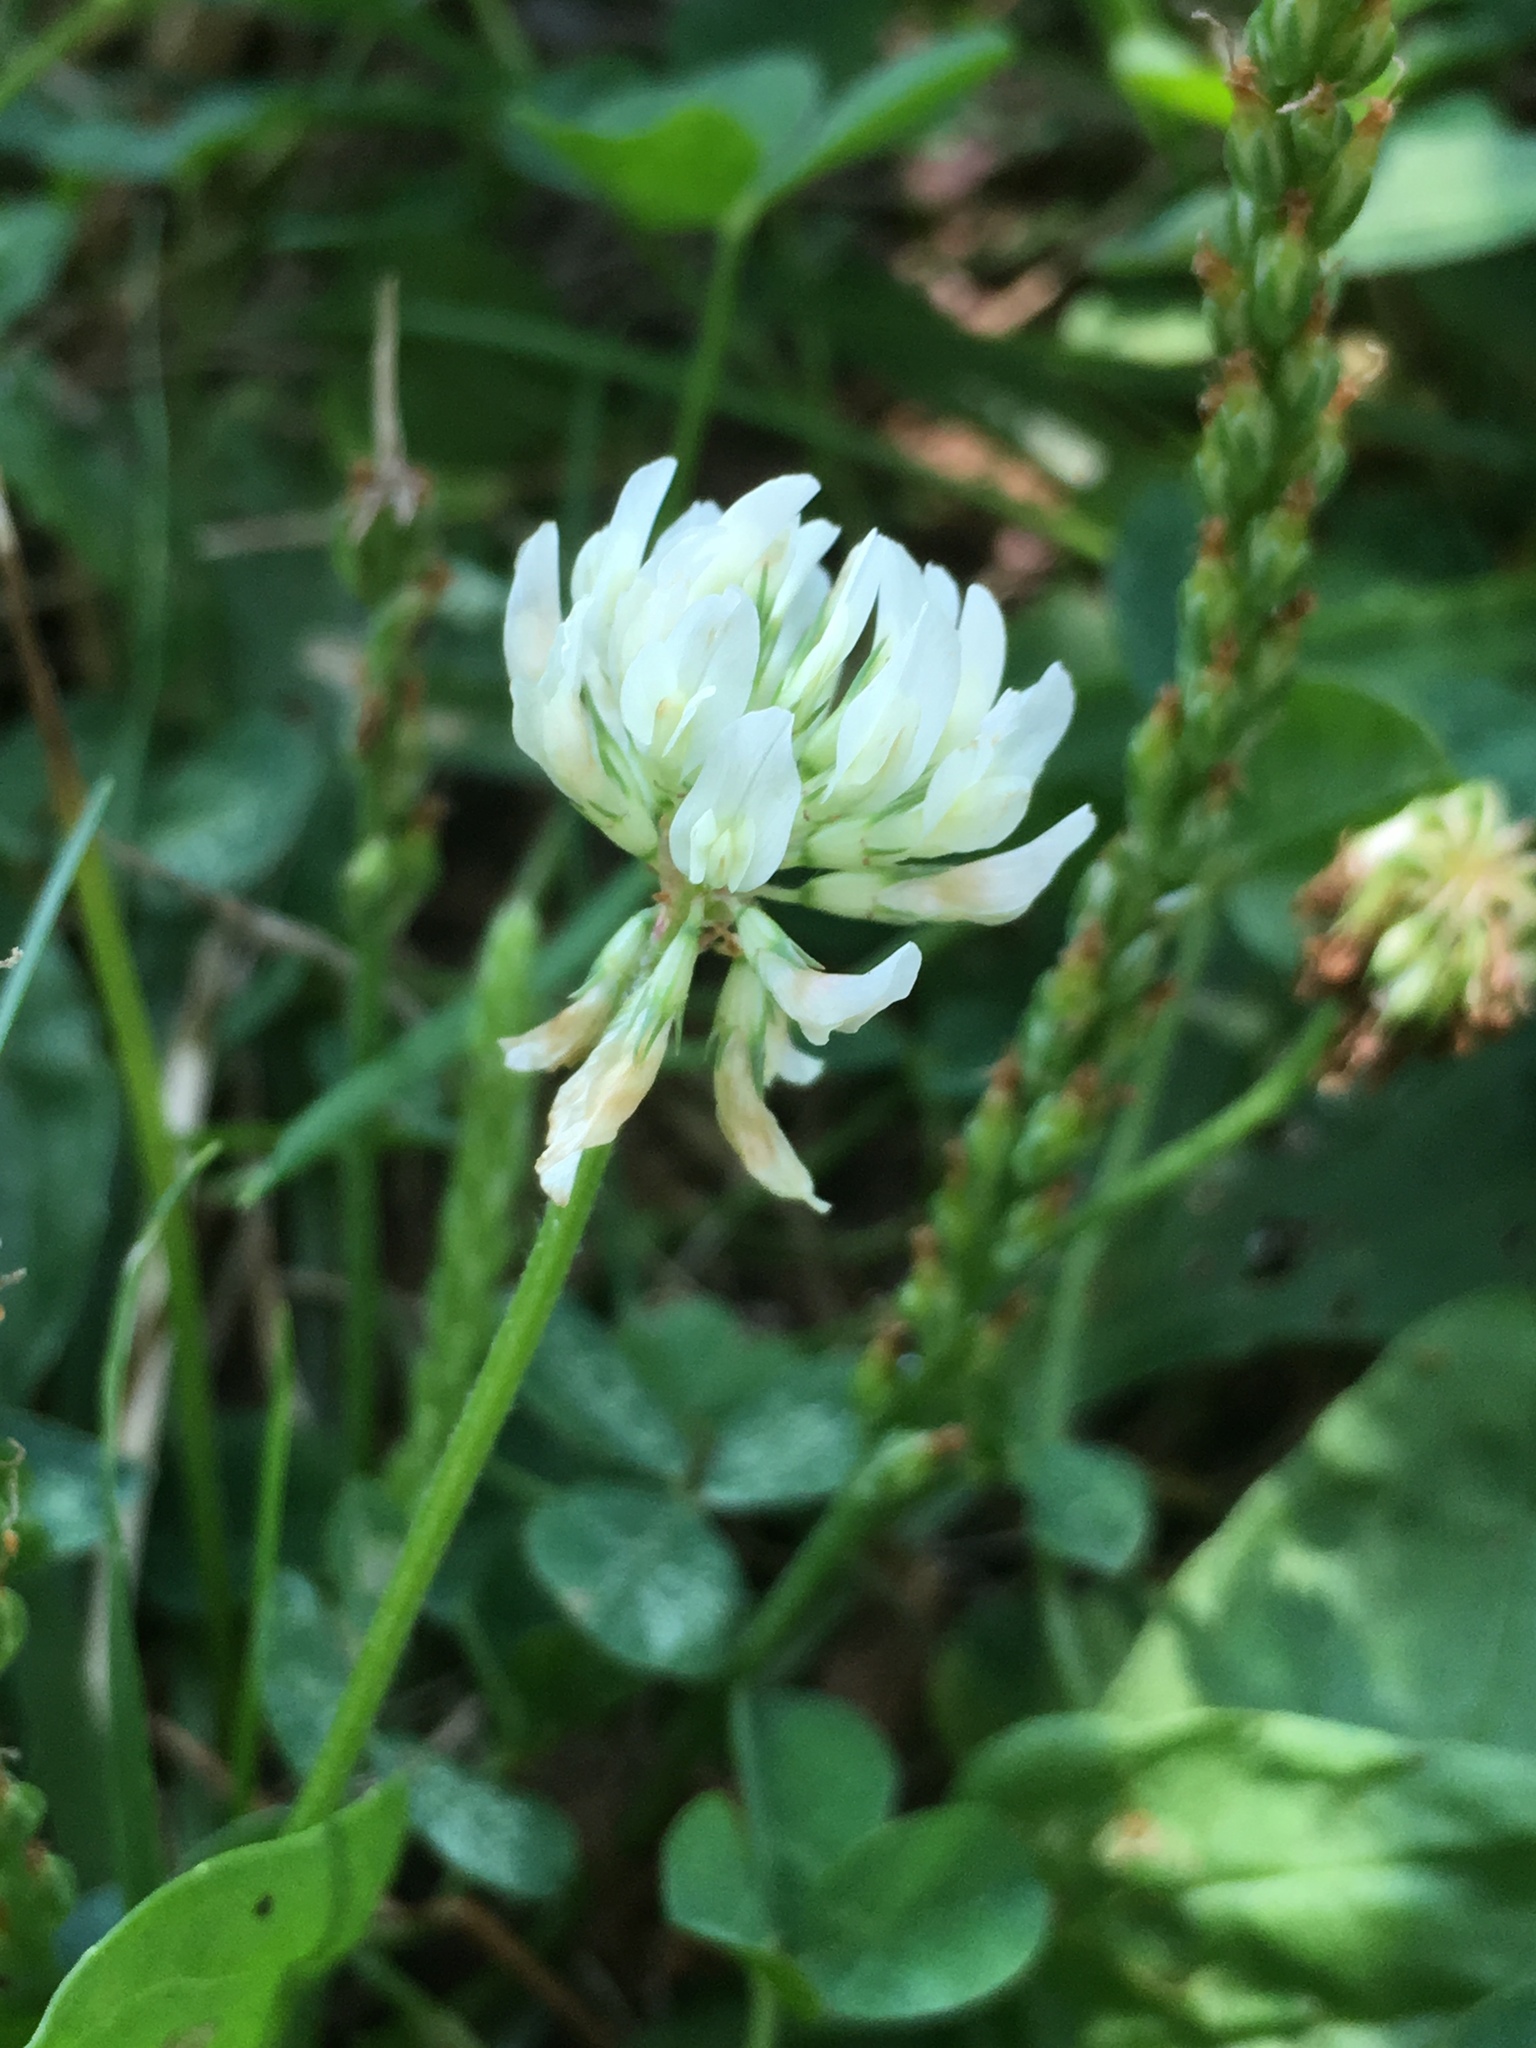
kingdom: Plantae
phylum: Tracheophyta
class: Magnoliopsida
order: Fabales
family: Fabaceae
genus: Trifolium
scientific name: Trifolium repens
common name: White clover
